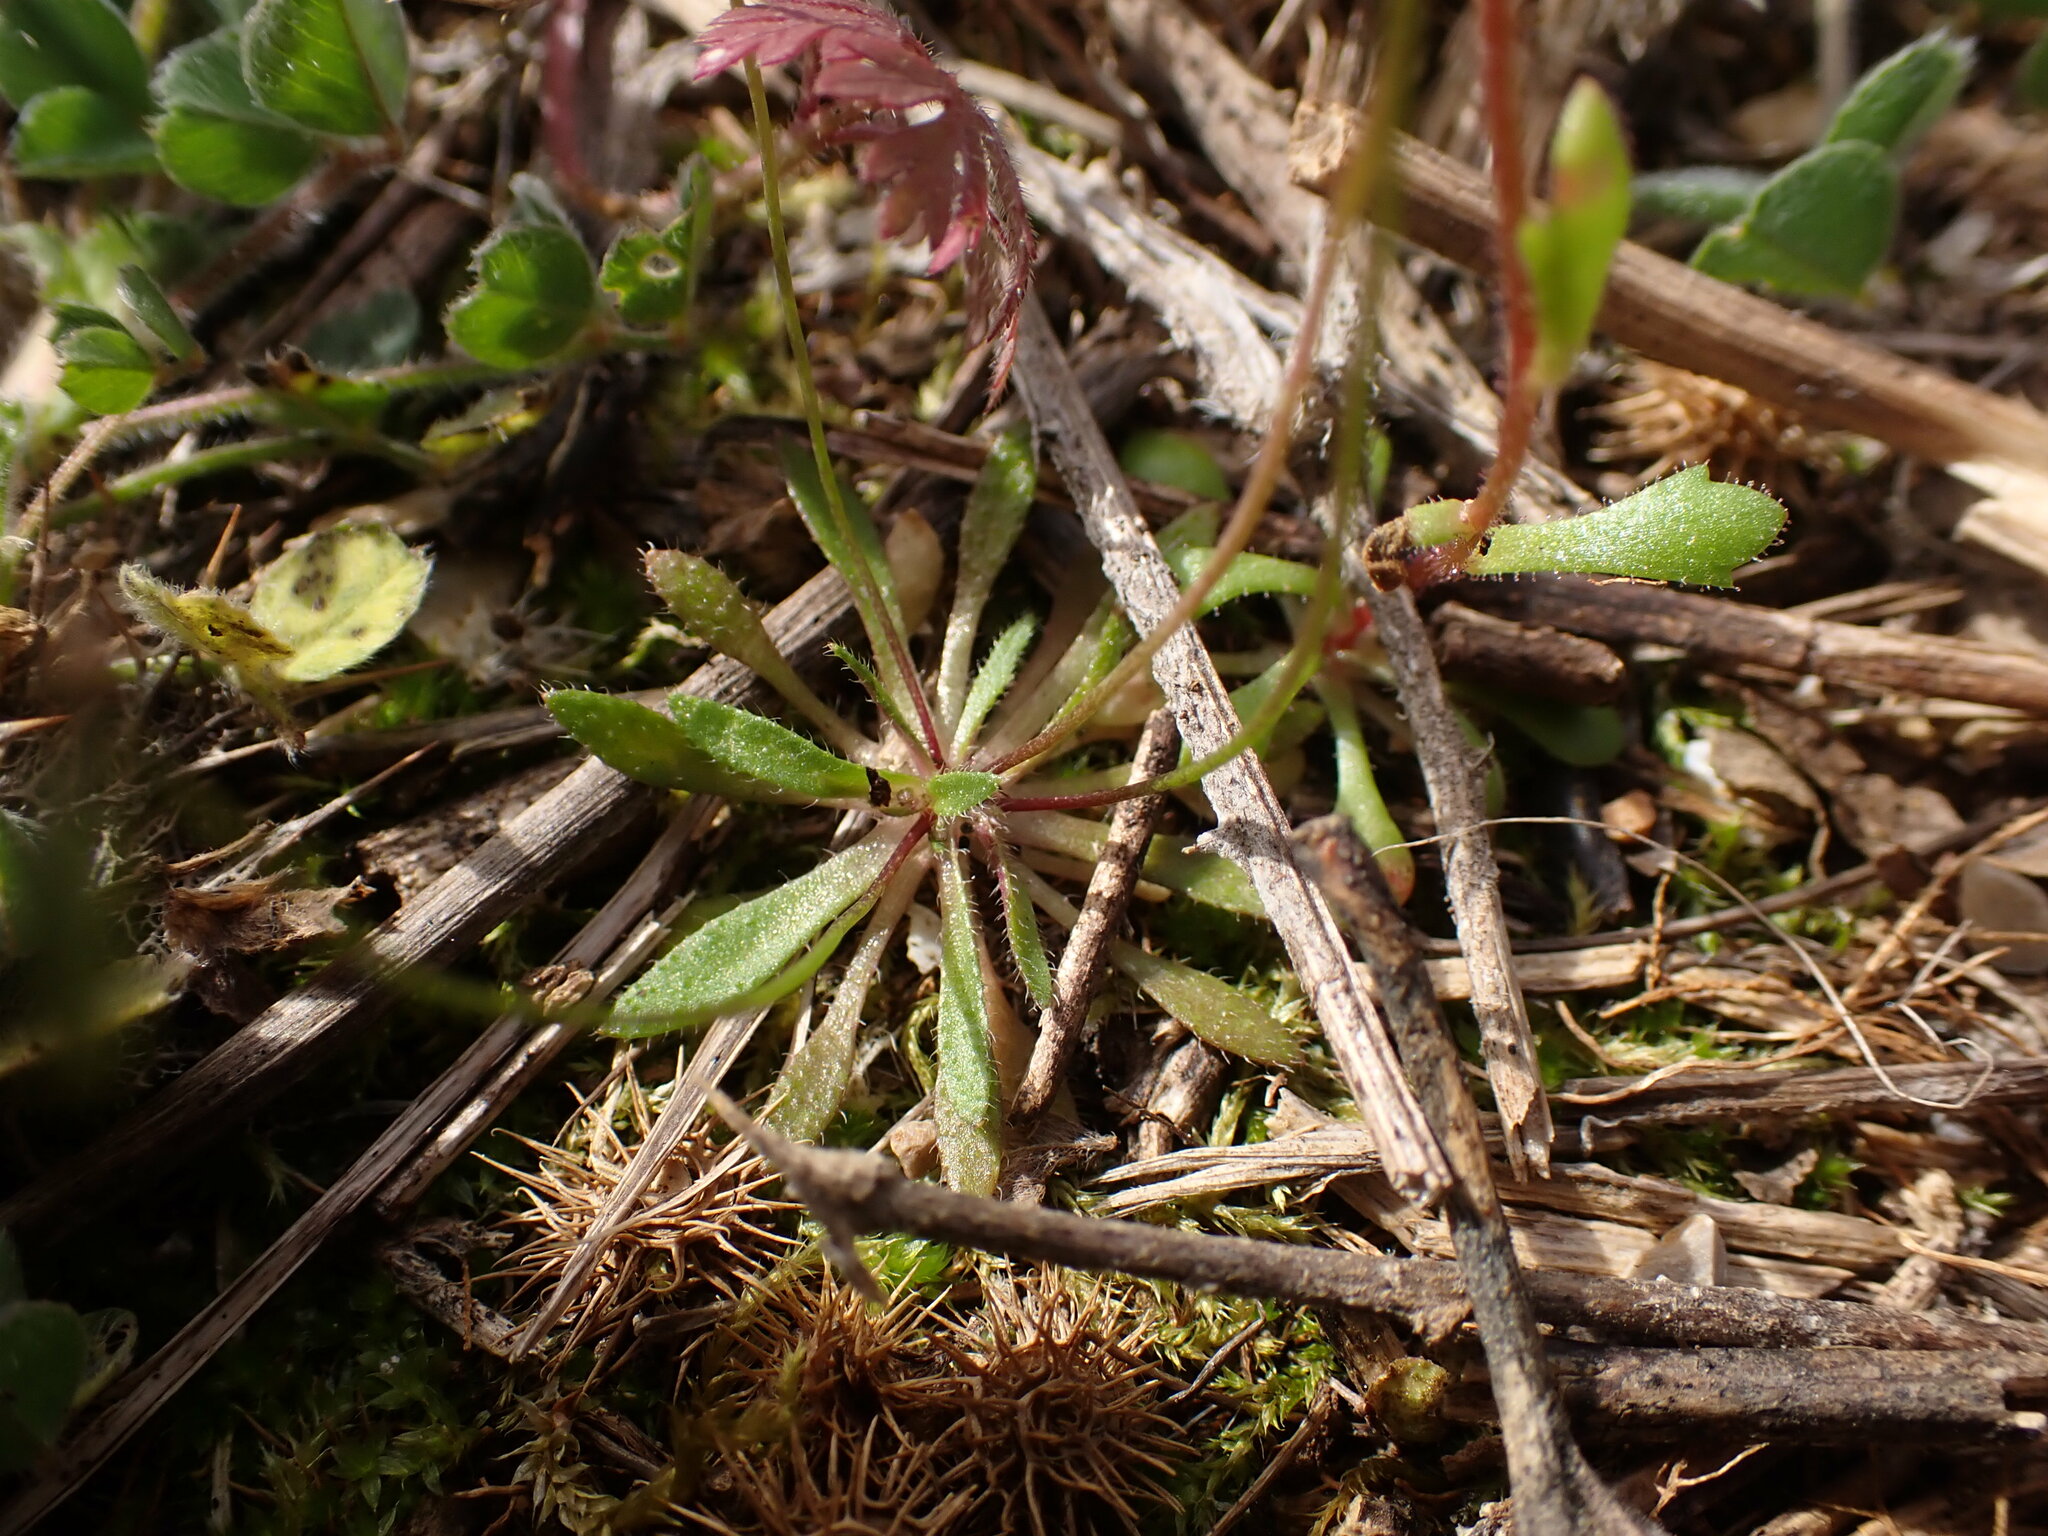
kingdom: Plantae
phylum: Tracheophyta
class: Magnoliopsida
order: Brassicales
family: Brassicaceae
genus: Draba
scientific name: Draba verna
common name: Spring draba
